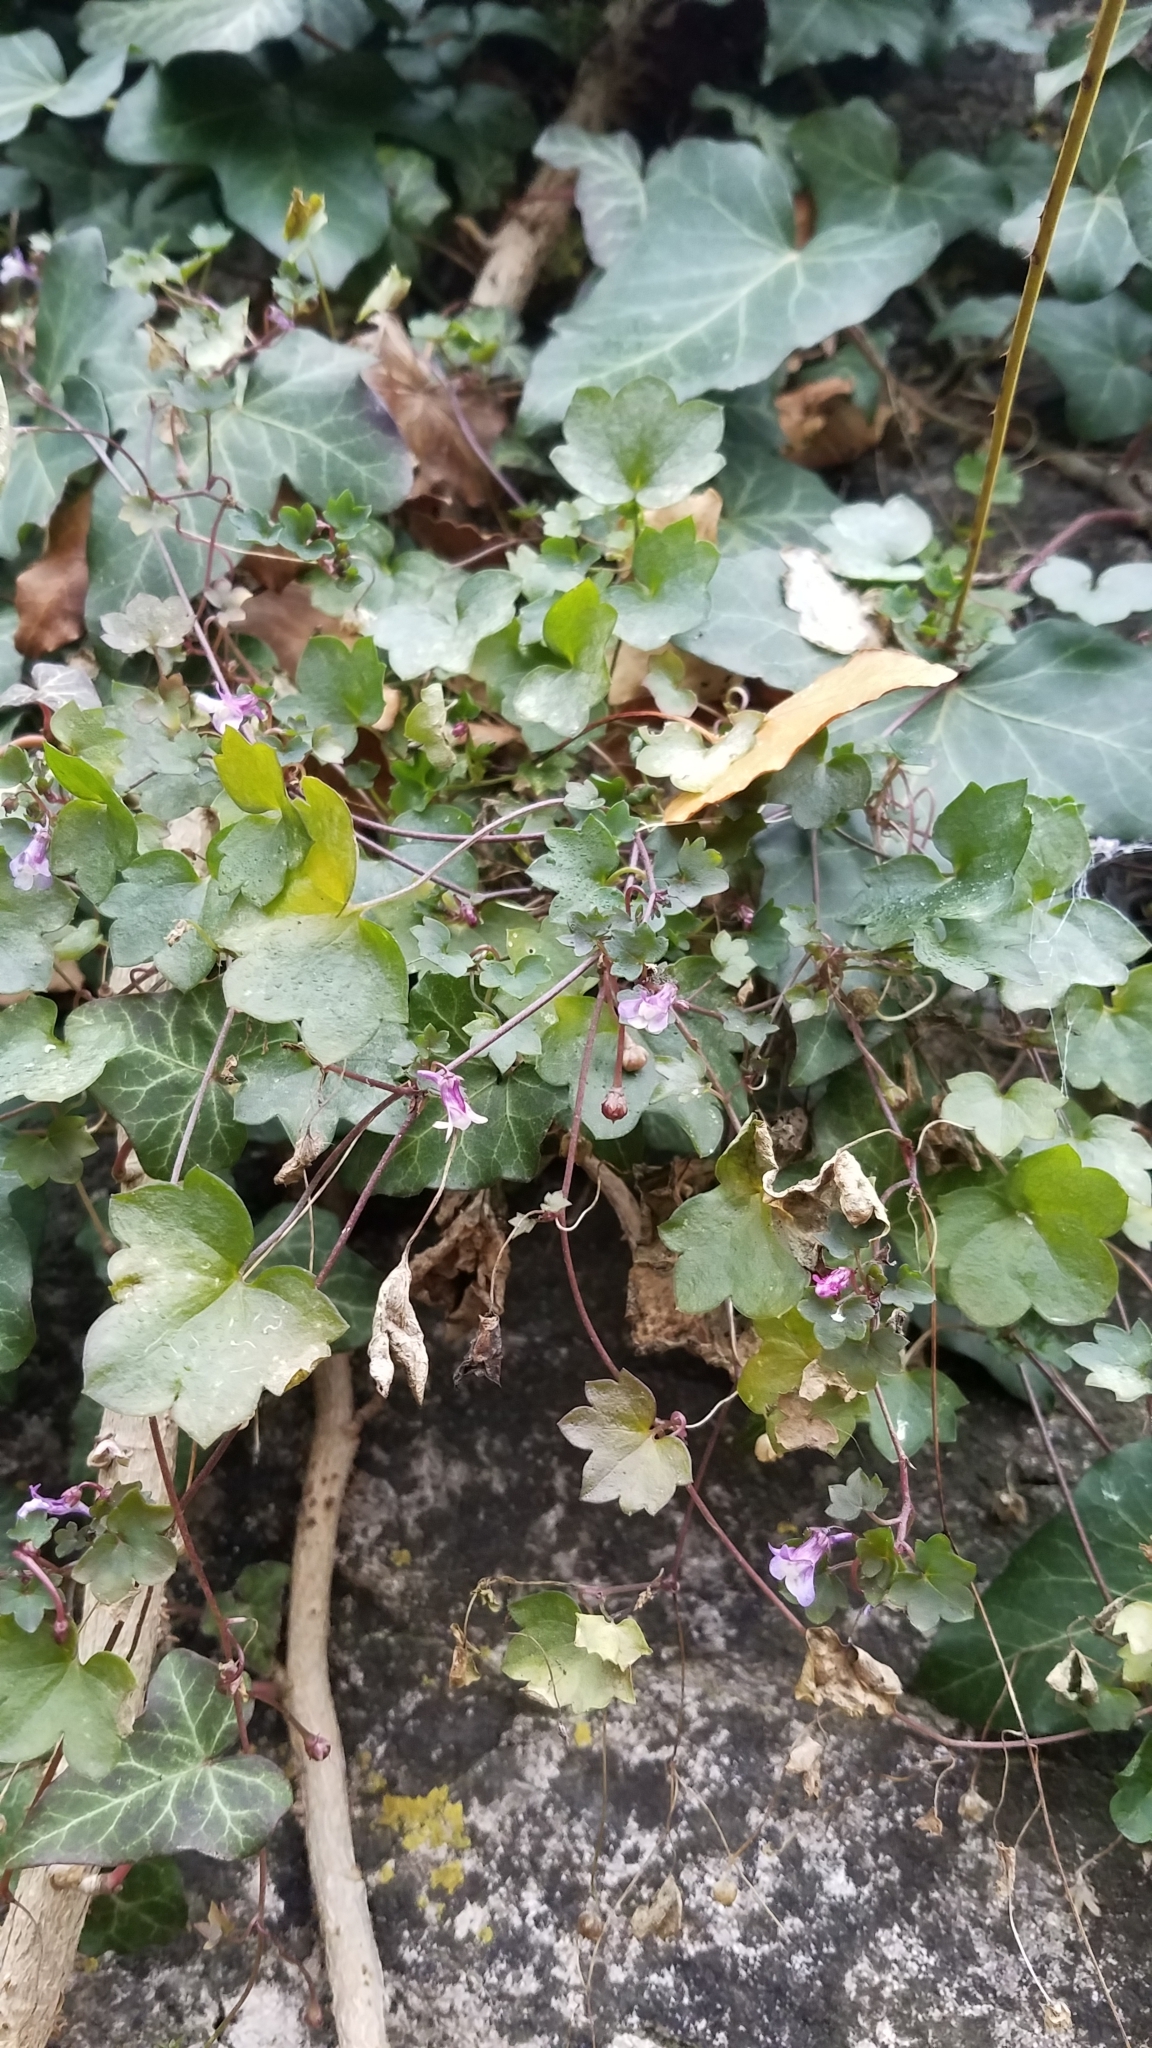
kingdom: Plantae
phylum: Tracheophyta
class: Magnoliopsida
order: Lamiales
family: Plantaginaceae
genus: Cymbalaria
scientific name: Cymbalaria muralis
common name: Ivy-leaved toadflax
